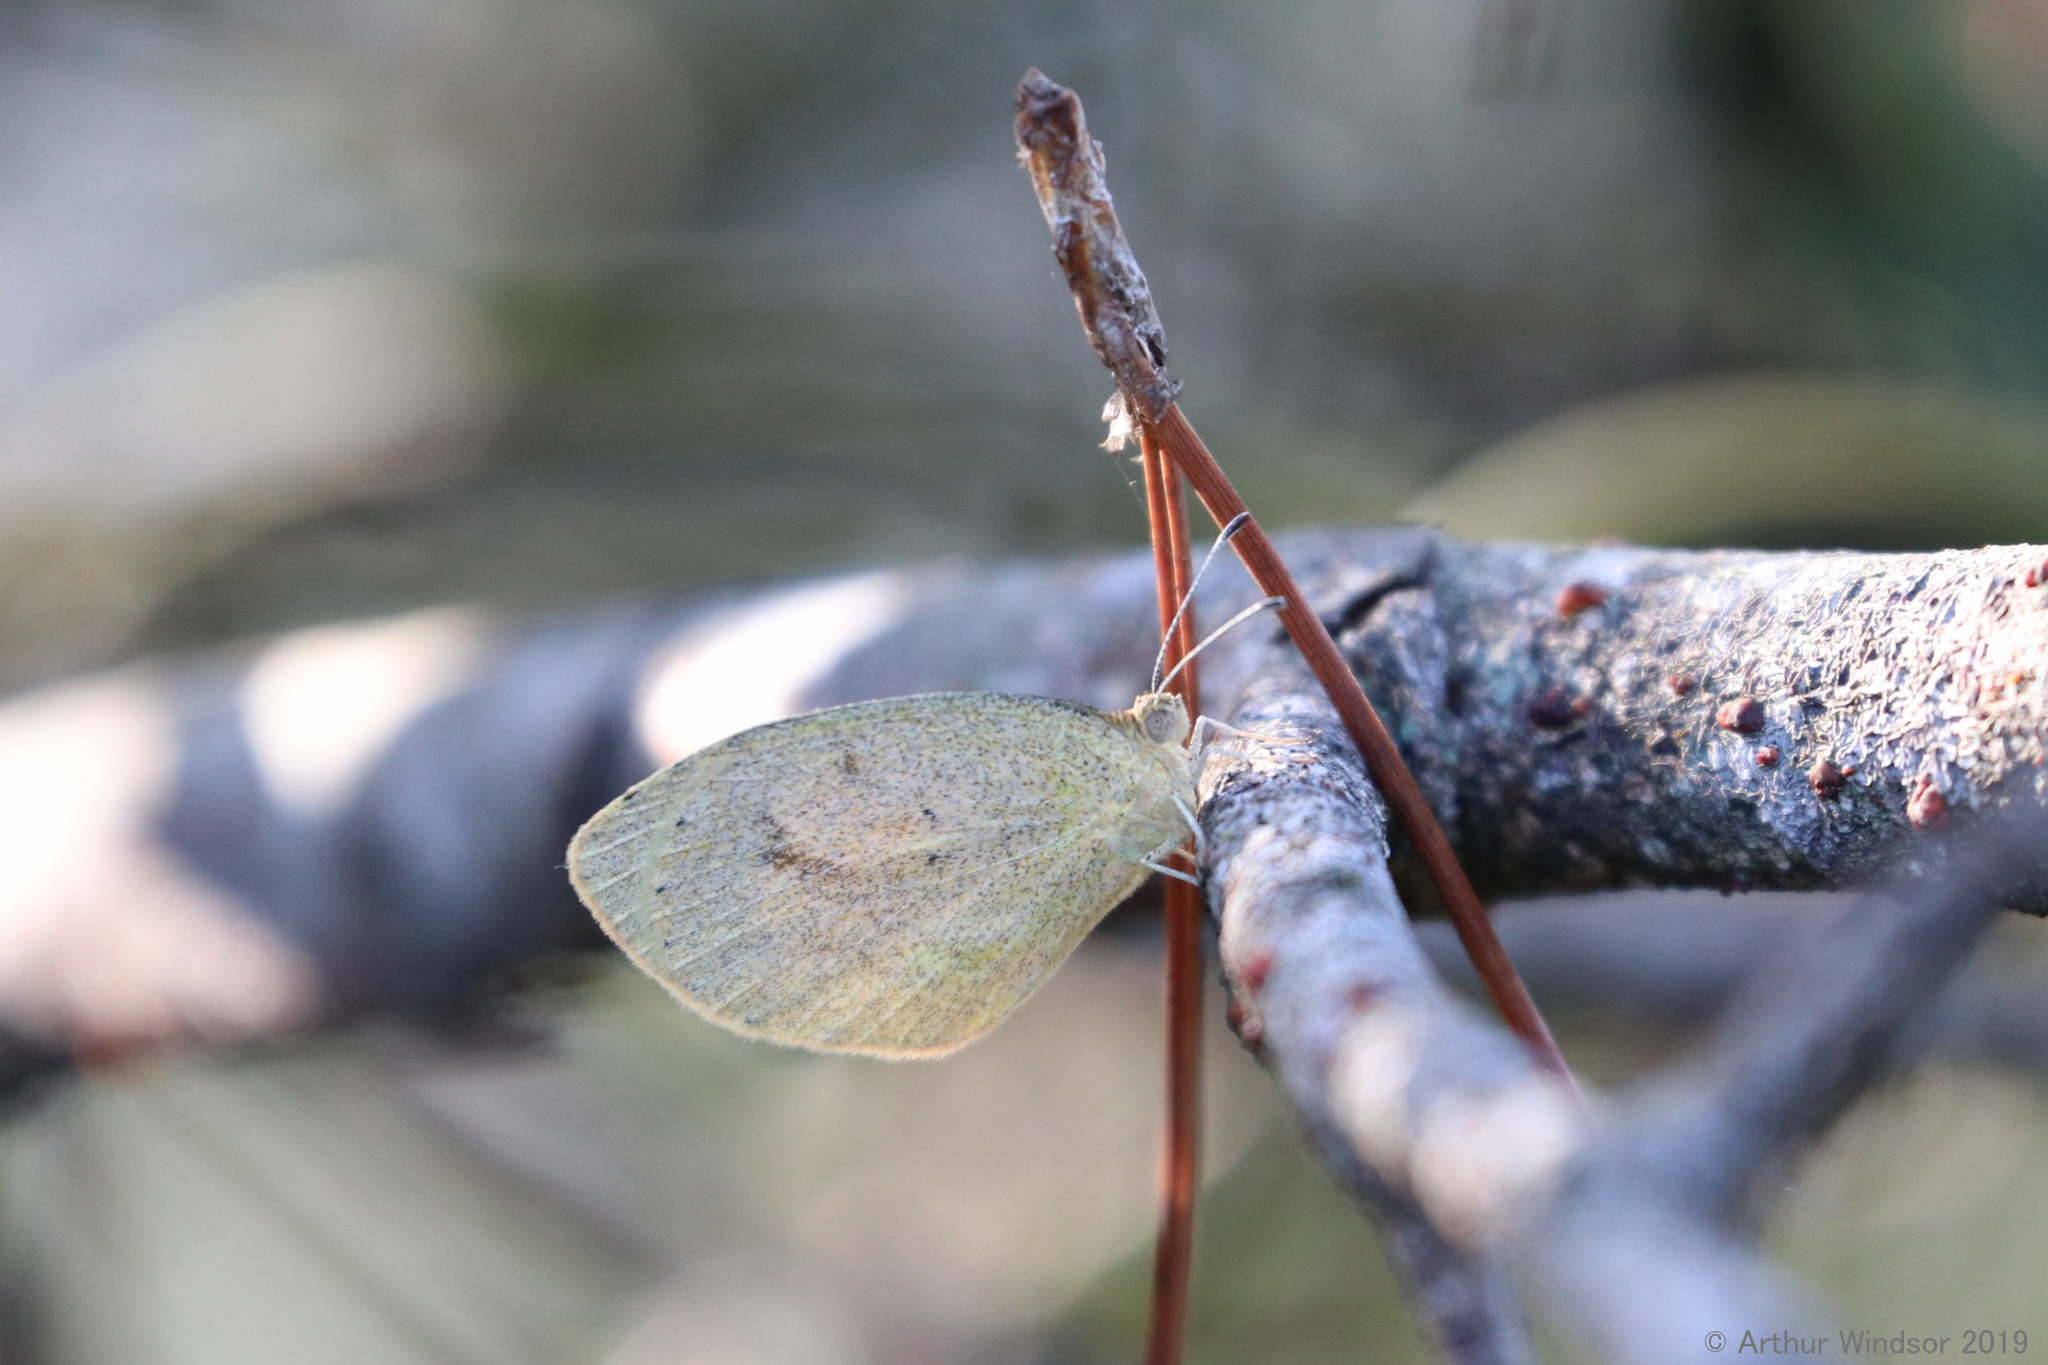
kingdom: Animalia
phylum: Arthropoda
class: Insecta
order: Lepidoptera
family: Pieridae
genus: Eurema
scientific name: Eurema daira
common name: Barred sulphur
